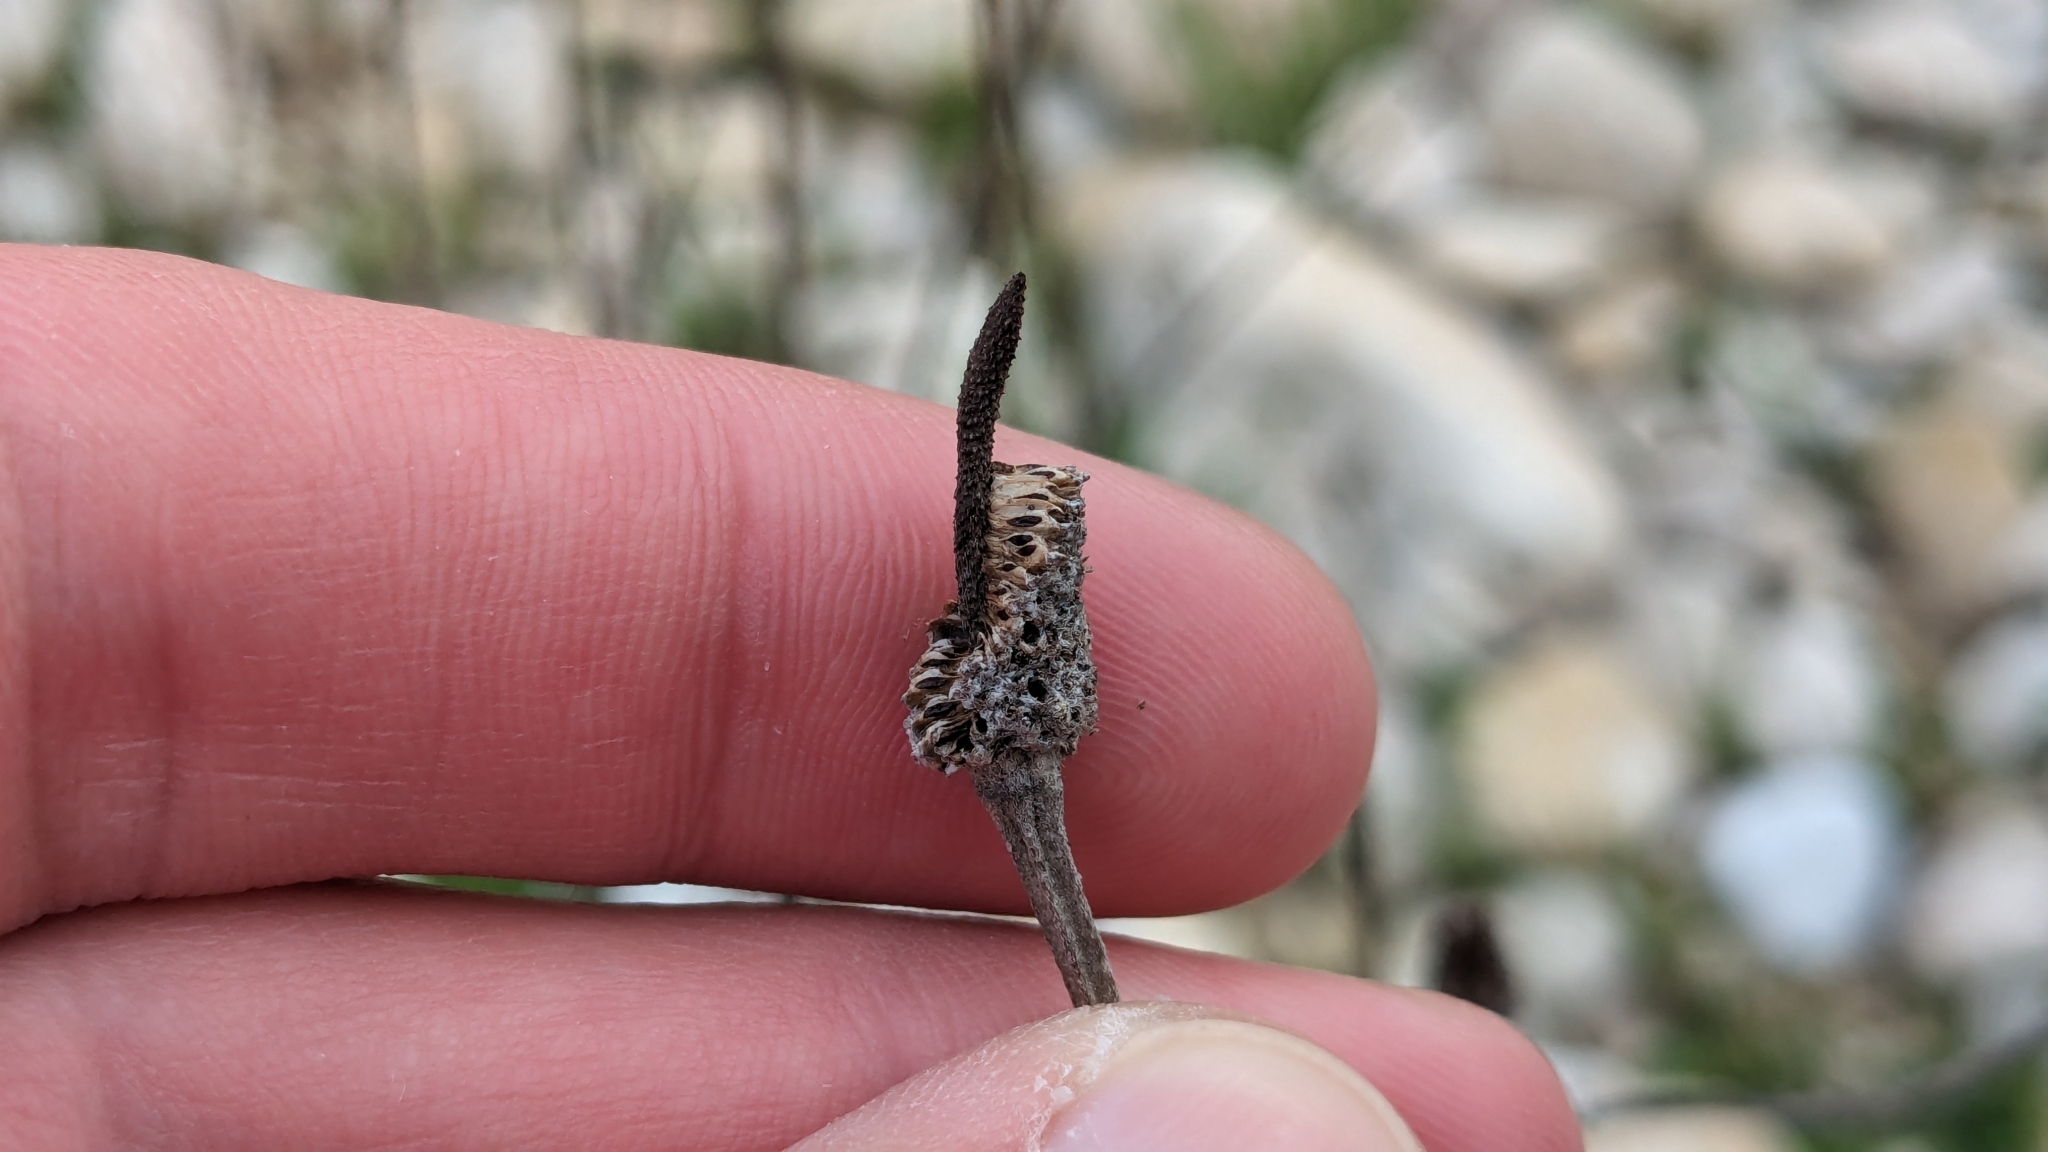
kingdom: Plantae
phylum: Tracheophyta
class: Magnoliopsida
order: Asterales
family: Asteraceae
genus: Ratibida
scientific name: Ratibida columnifera
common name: Prairie coneflower
